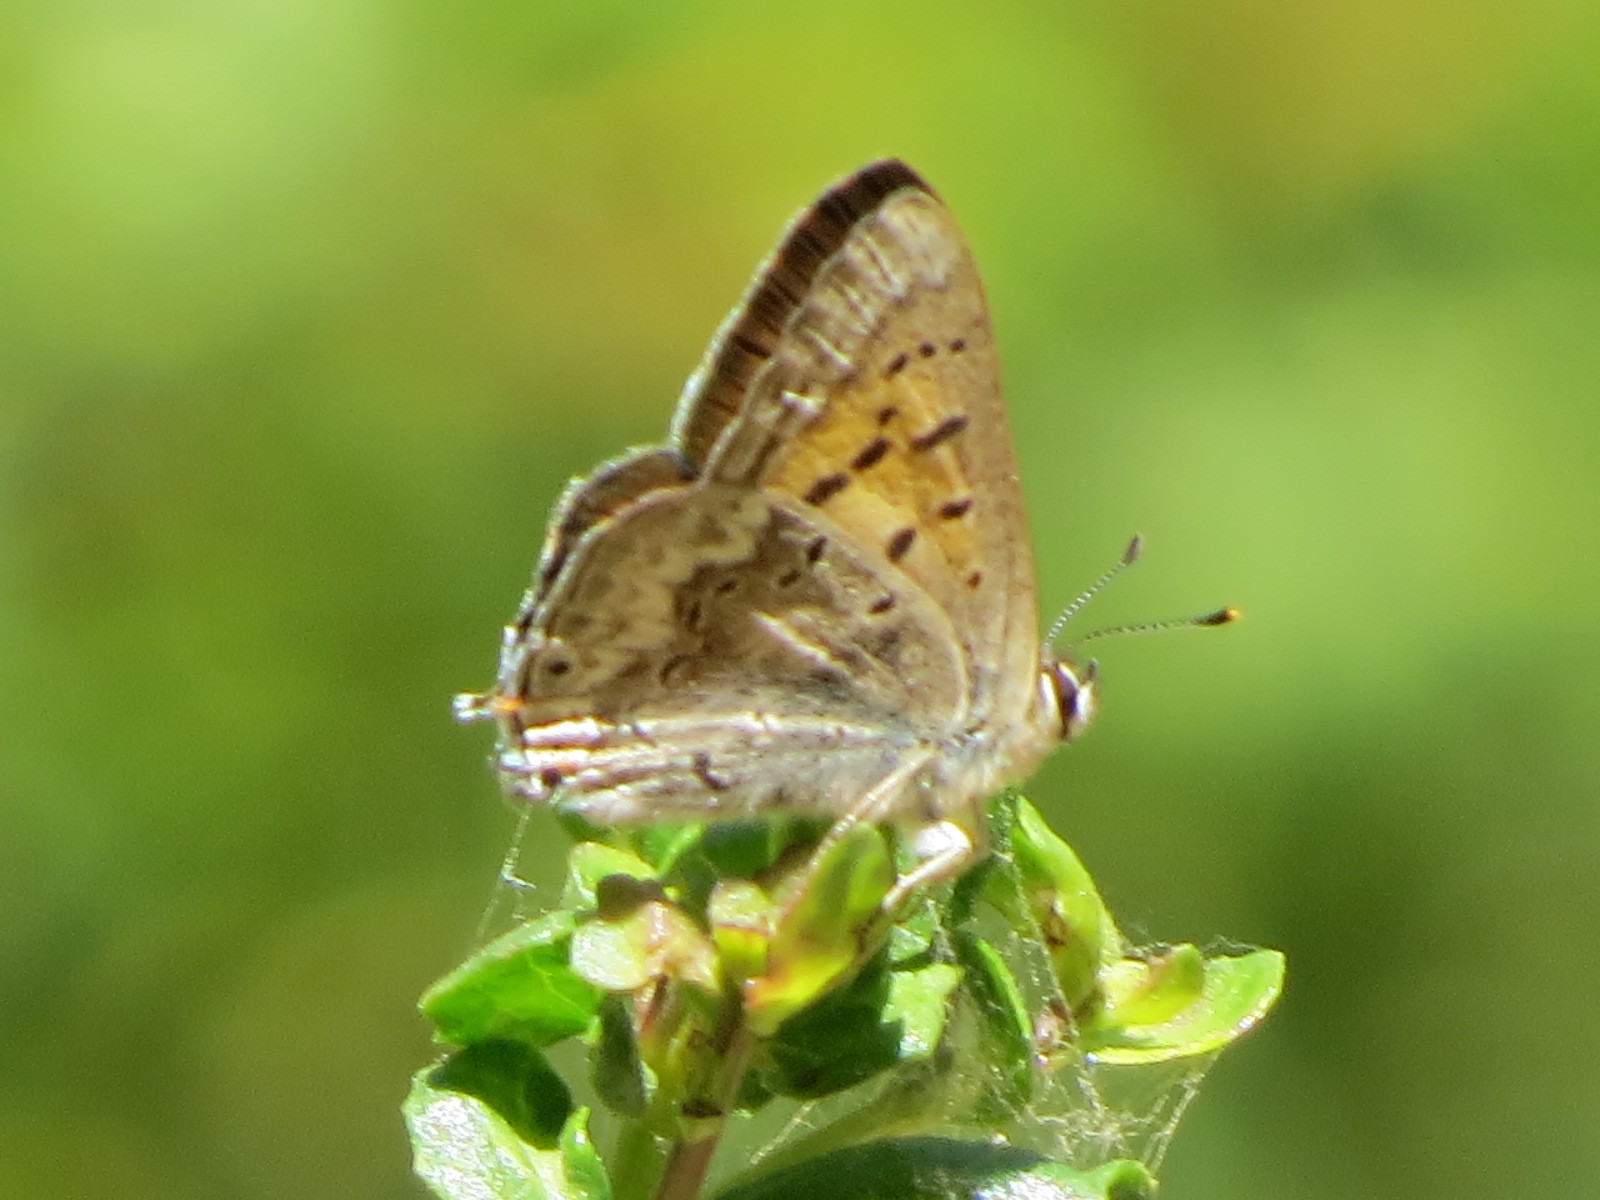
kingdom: Animalia
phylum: Arthropoda
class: Insecta
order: Lepidoptera
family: Lycaenidae
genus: Tharsalea
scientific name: Tharsalea arota
